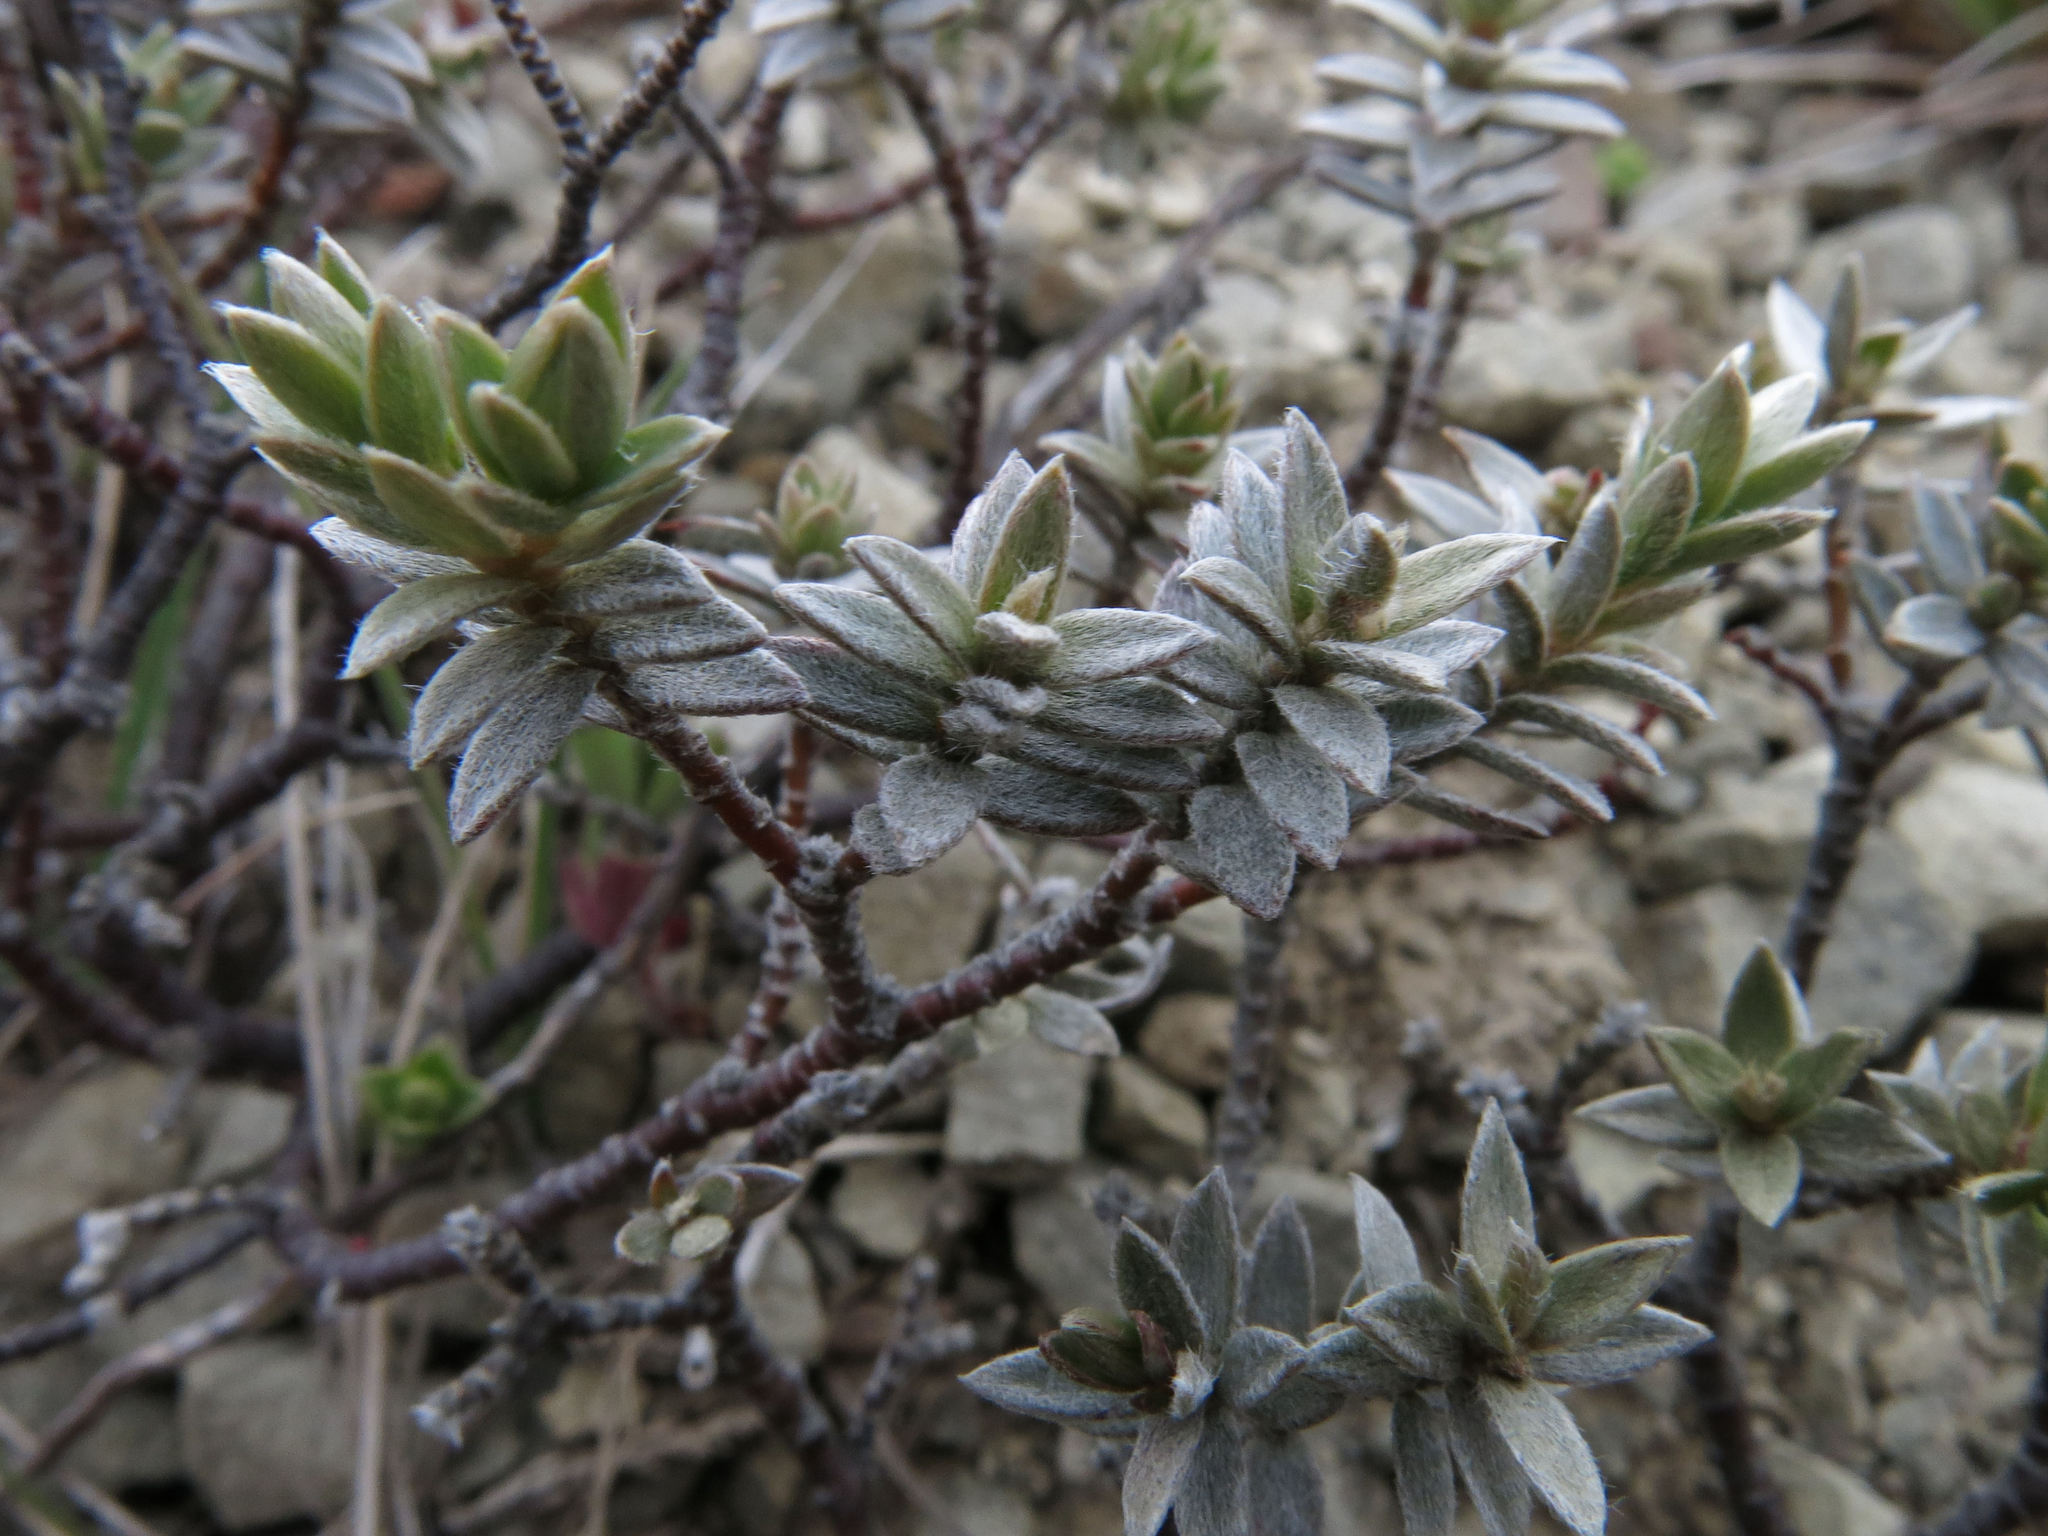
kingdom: Plantae
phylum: Tracheophyta
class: Magnoliopsida
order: Malvales
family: Thymelaeaceae
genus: Pimelea
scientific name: Pimelea concinna
